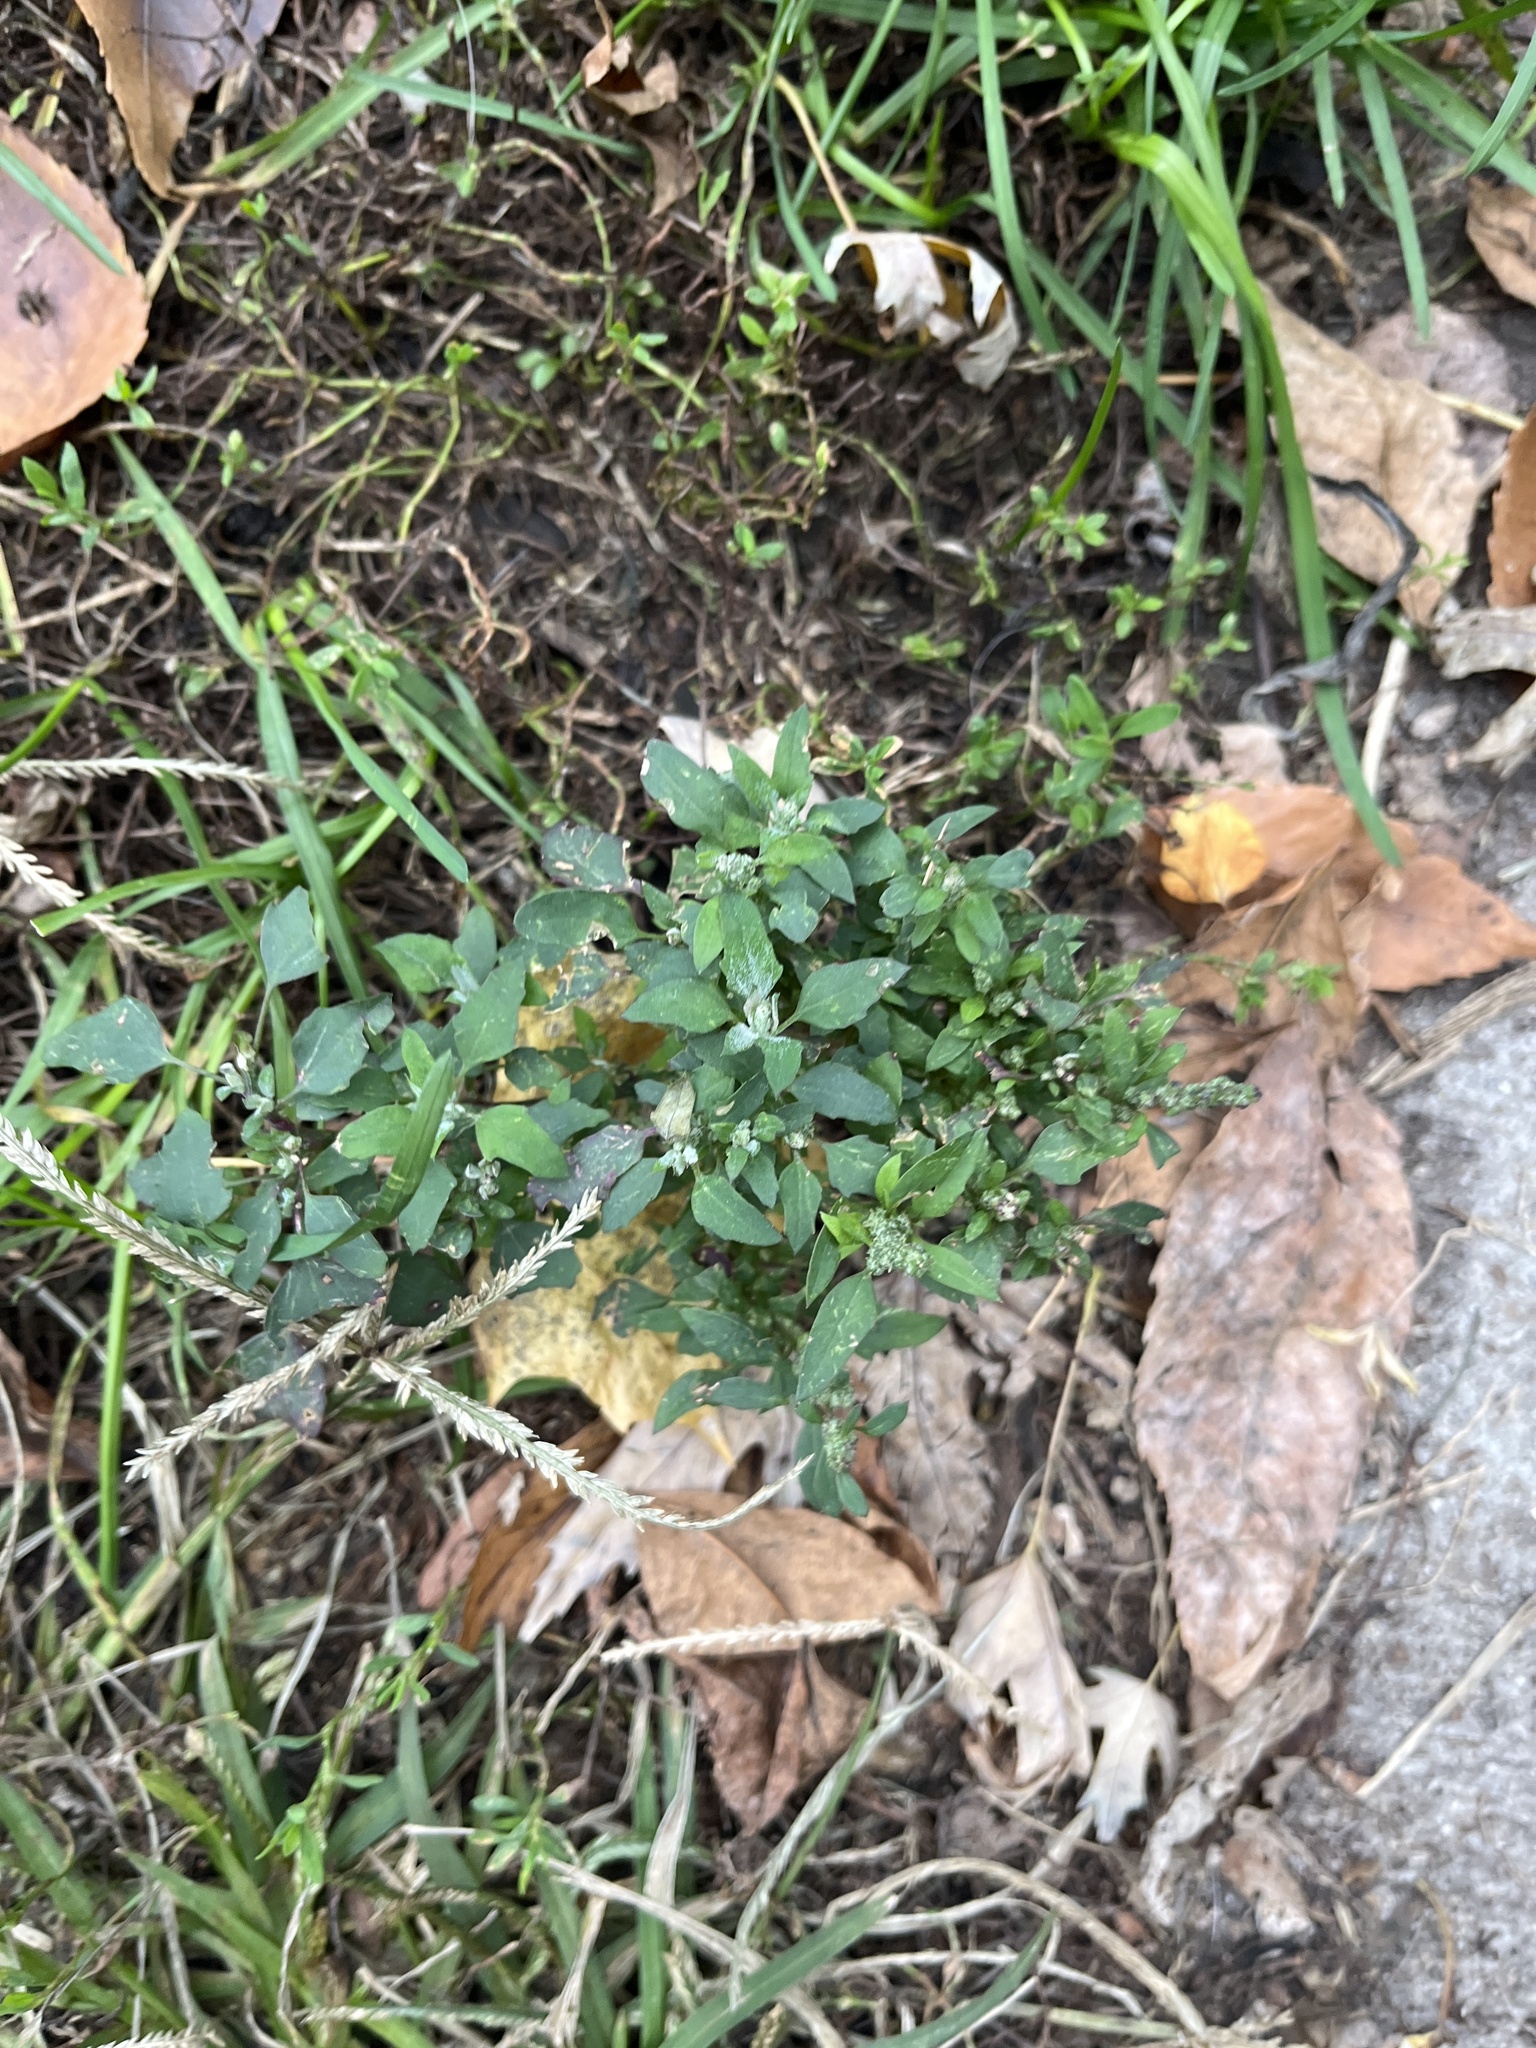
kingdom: Plantae
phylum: Tracheophyta
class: Magnoliopsida
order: Caryophyllales
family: Amaranthaceae
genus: Chenopodium
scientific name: Chenopodium album
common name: Fat-hen
